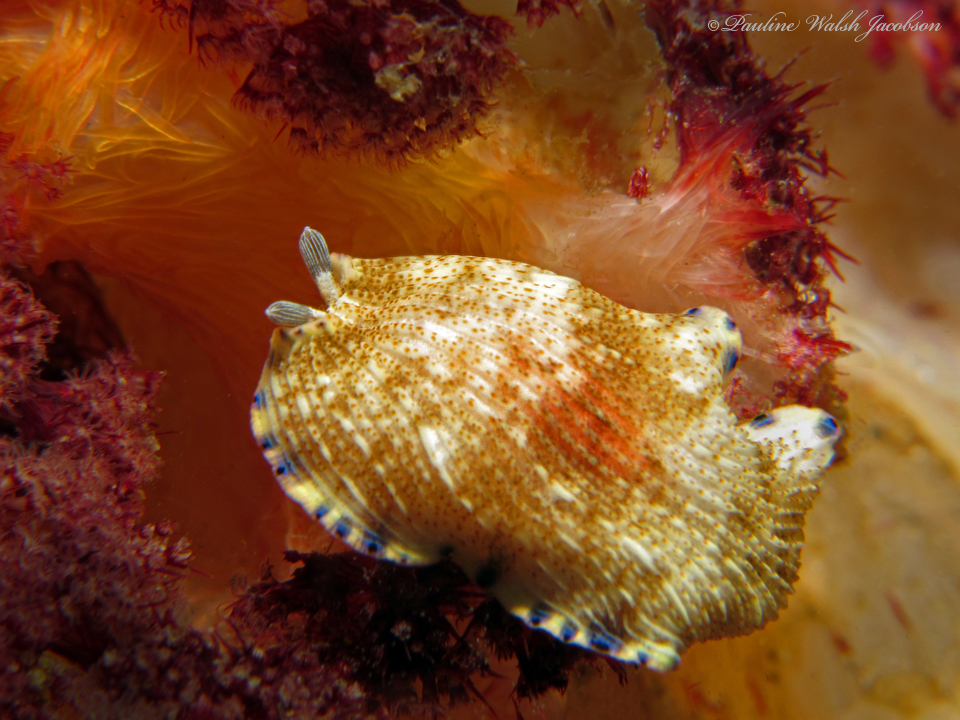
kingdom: Animalia
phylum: Mollusca
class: Gastropoda
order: Nudibranchia
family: Arminidae
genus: Dermatobranchus
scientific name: Dermatobranchus caeruleomaculatus
